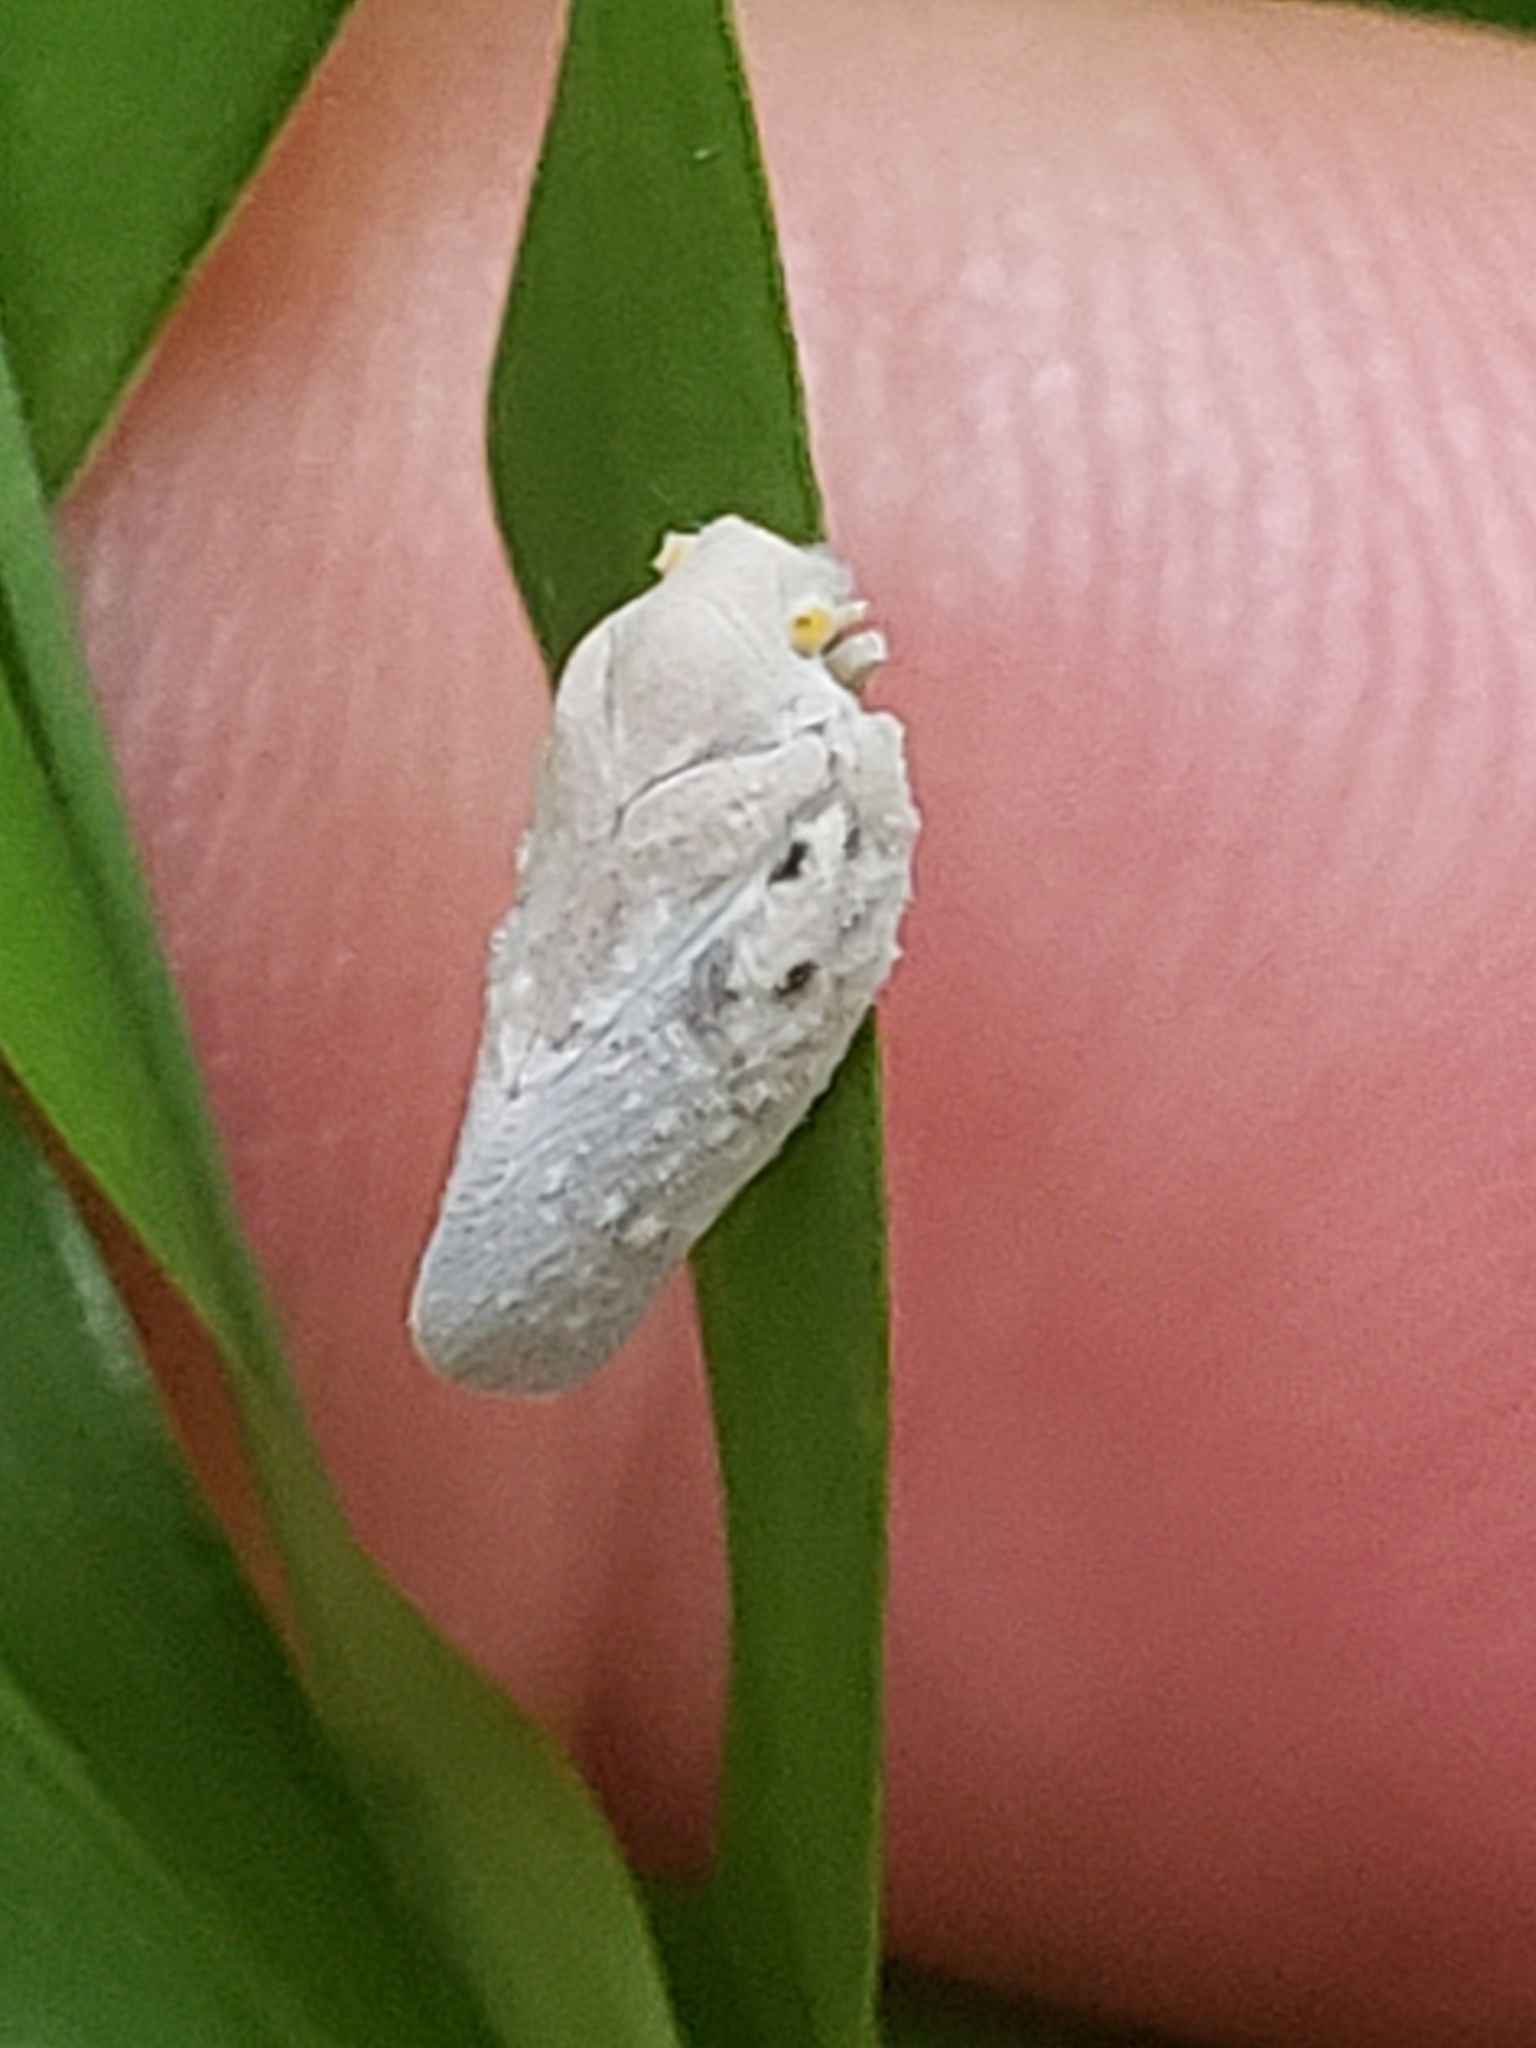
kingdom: Animalia
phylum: Arthropoda
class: Insecta
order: Hemiptera
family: Flatidae
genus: Metcalfa
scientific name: Metcalfa pruinosa
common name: Citrus flatid planthopper
